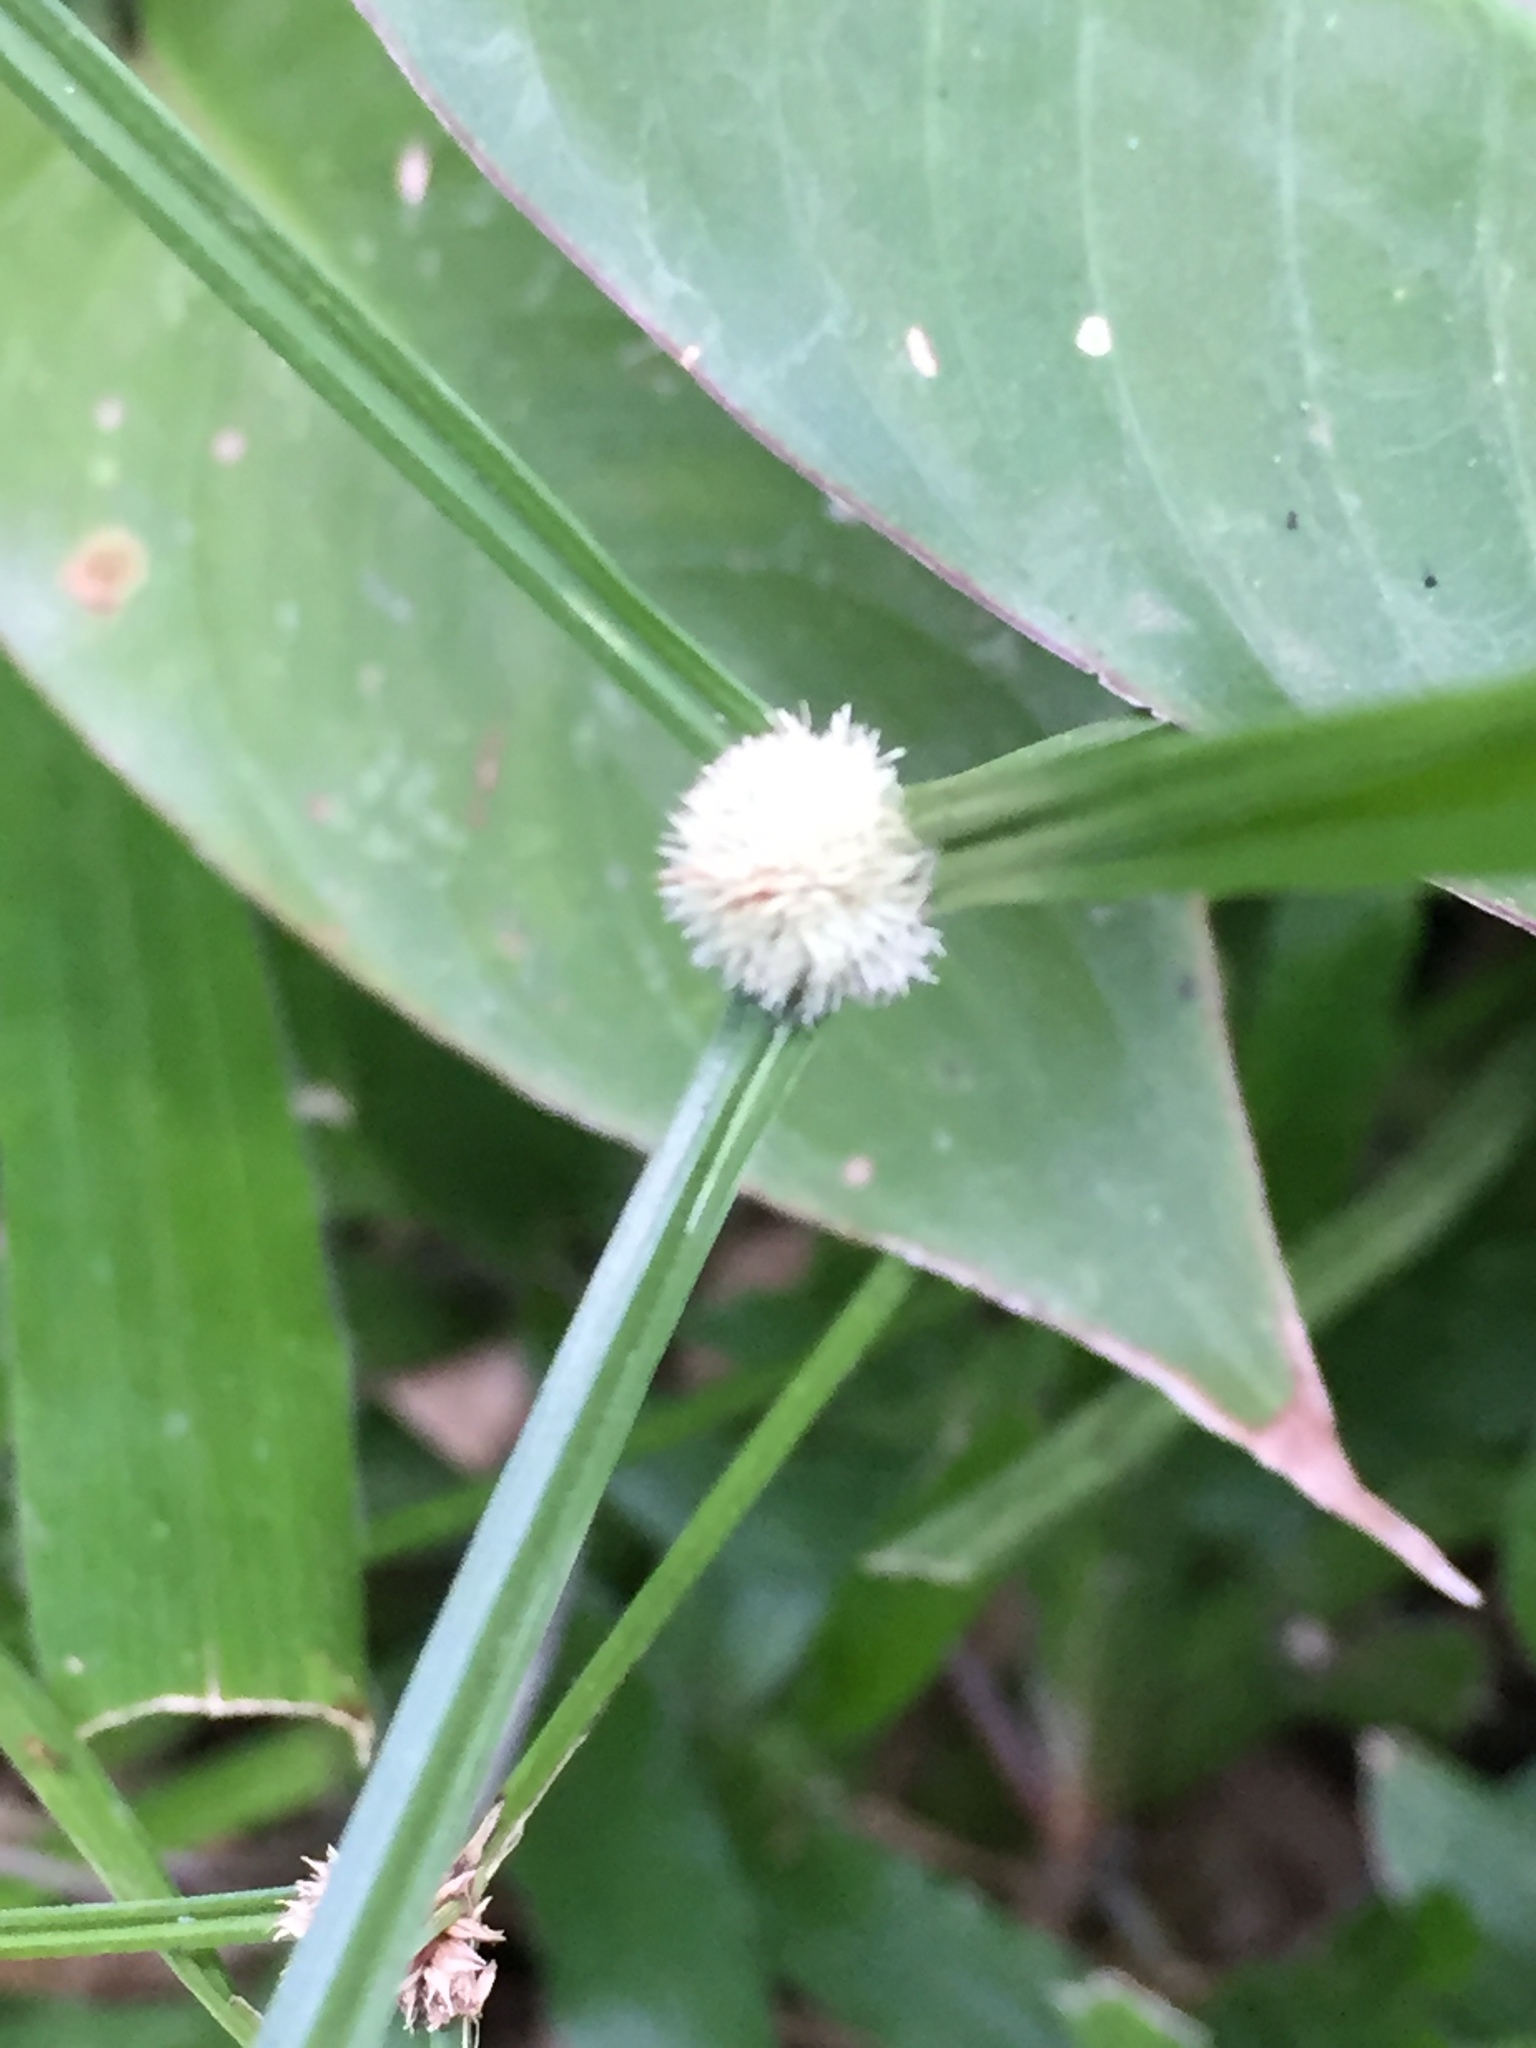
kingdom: Plantae
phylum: Tracheophyta
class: Liliopsida
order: Poales
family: Cyperaceae
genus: Cyperus
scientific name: Cyperus mindorensis
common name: Flatsedge
